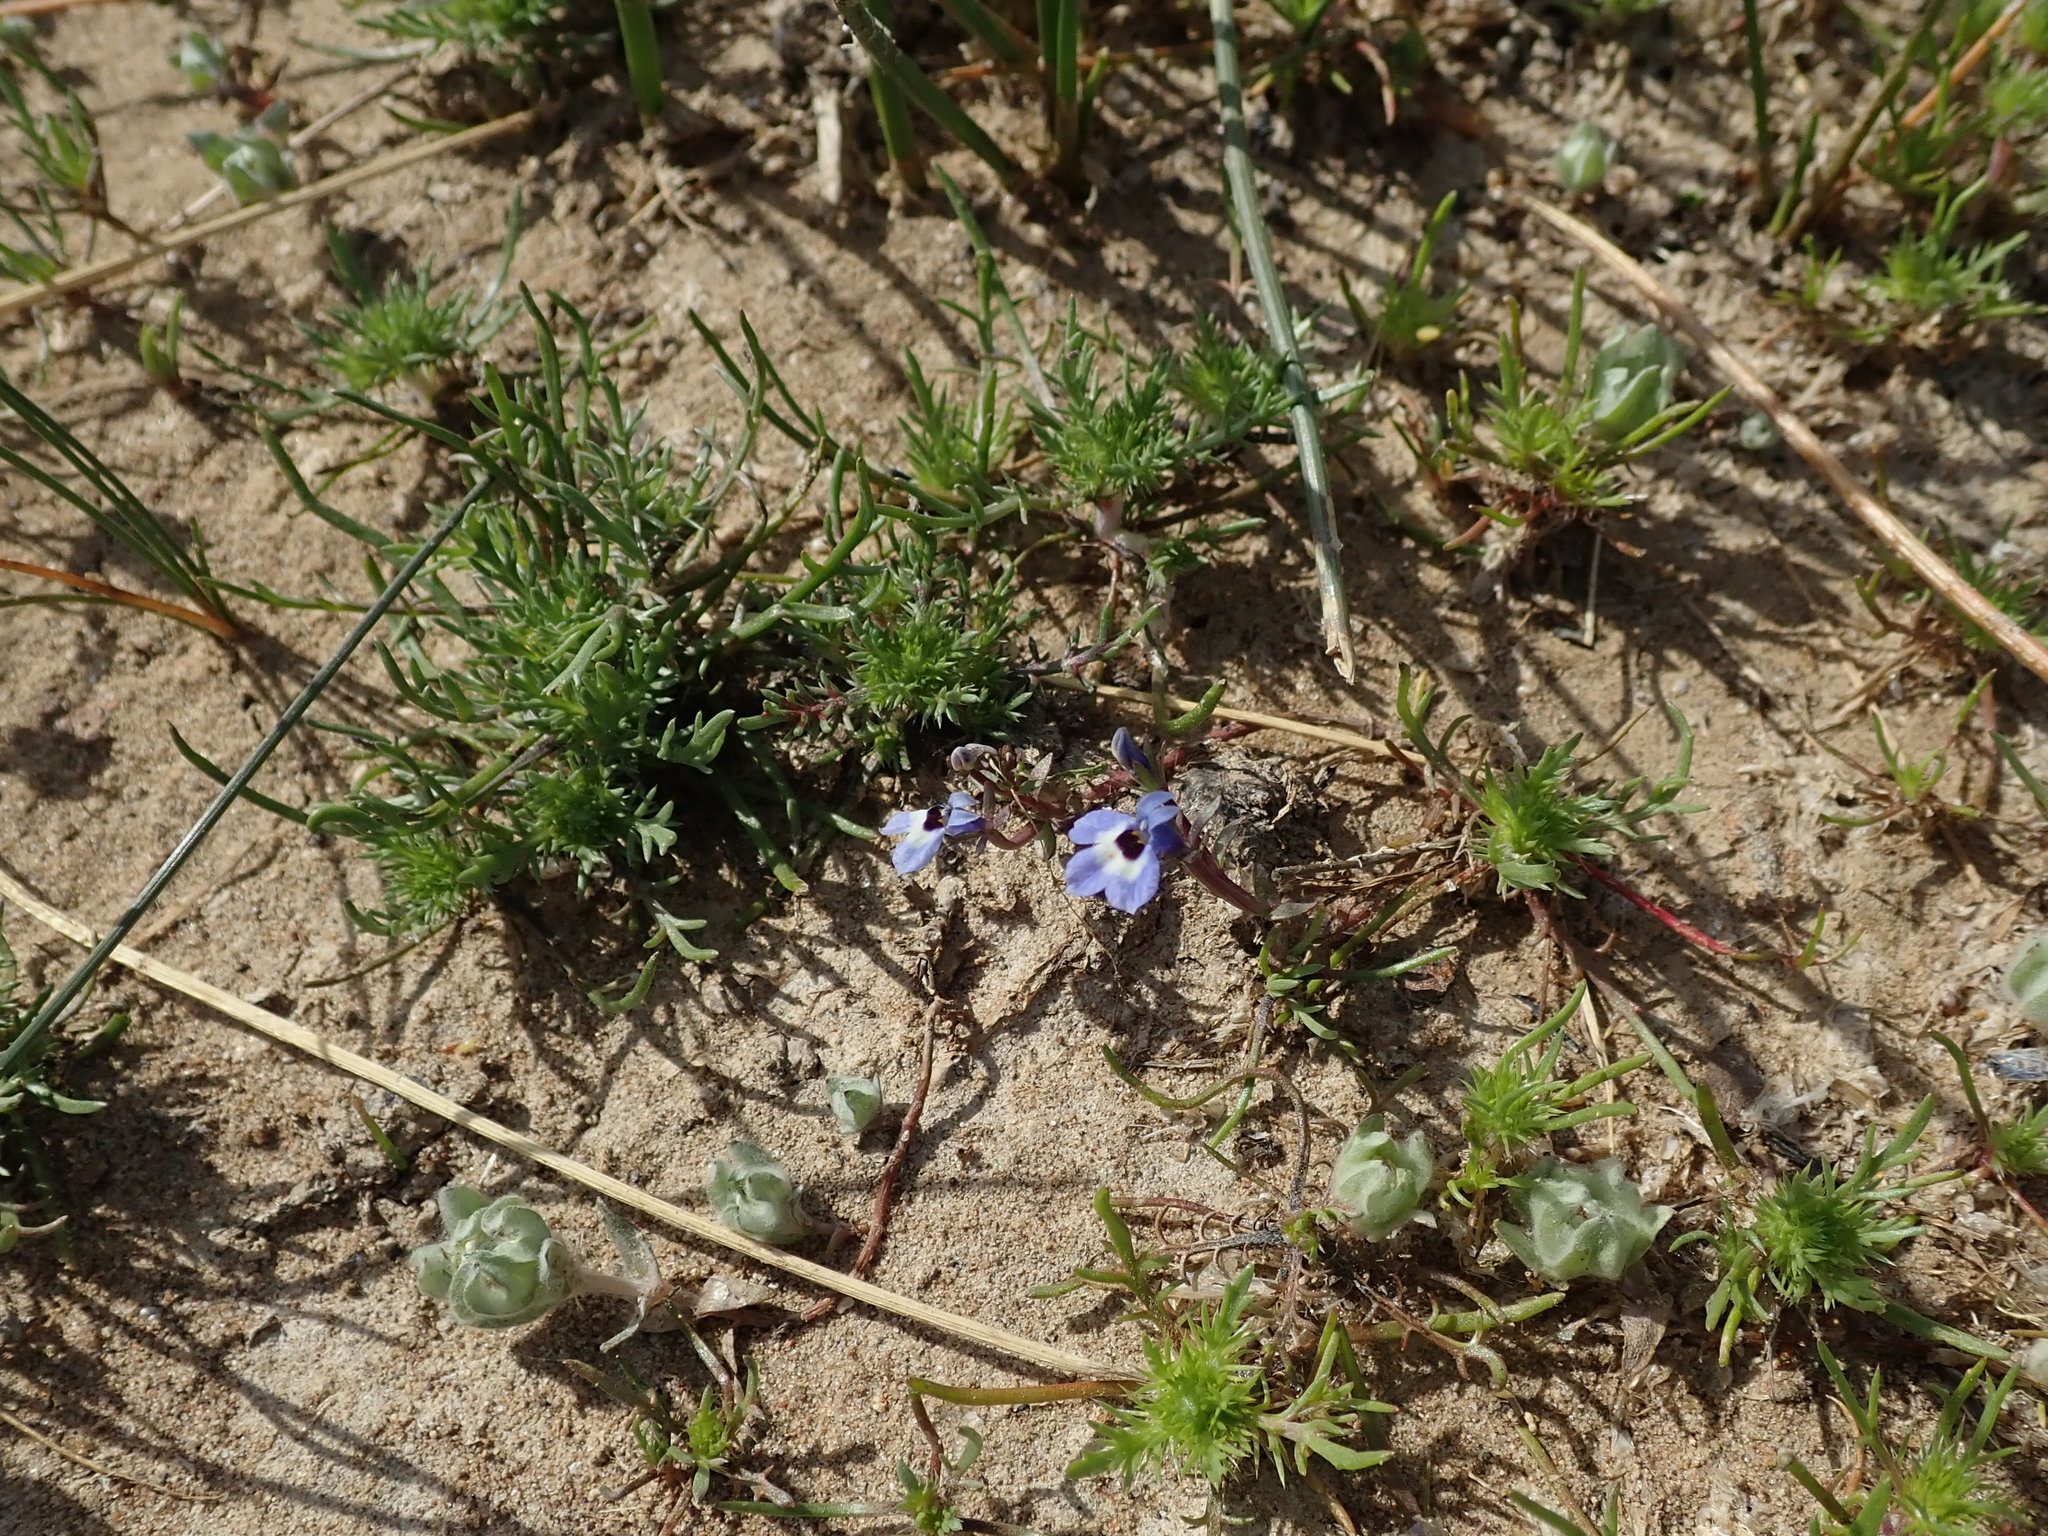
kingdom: Plantae
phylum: Tracheophyta
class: Magnoliopsida
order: Asterales
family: Campanulaceae
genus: Downingia
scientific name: Downingia concolor
